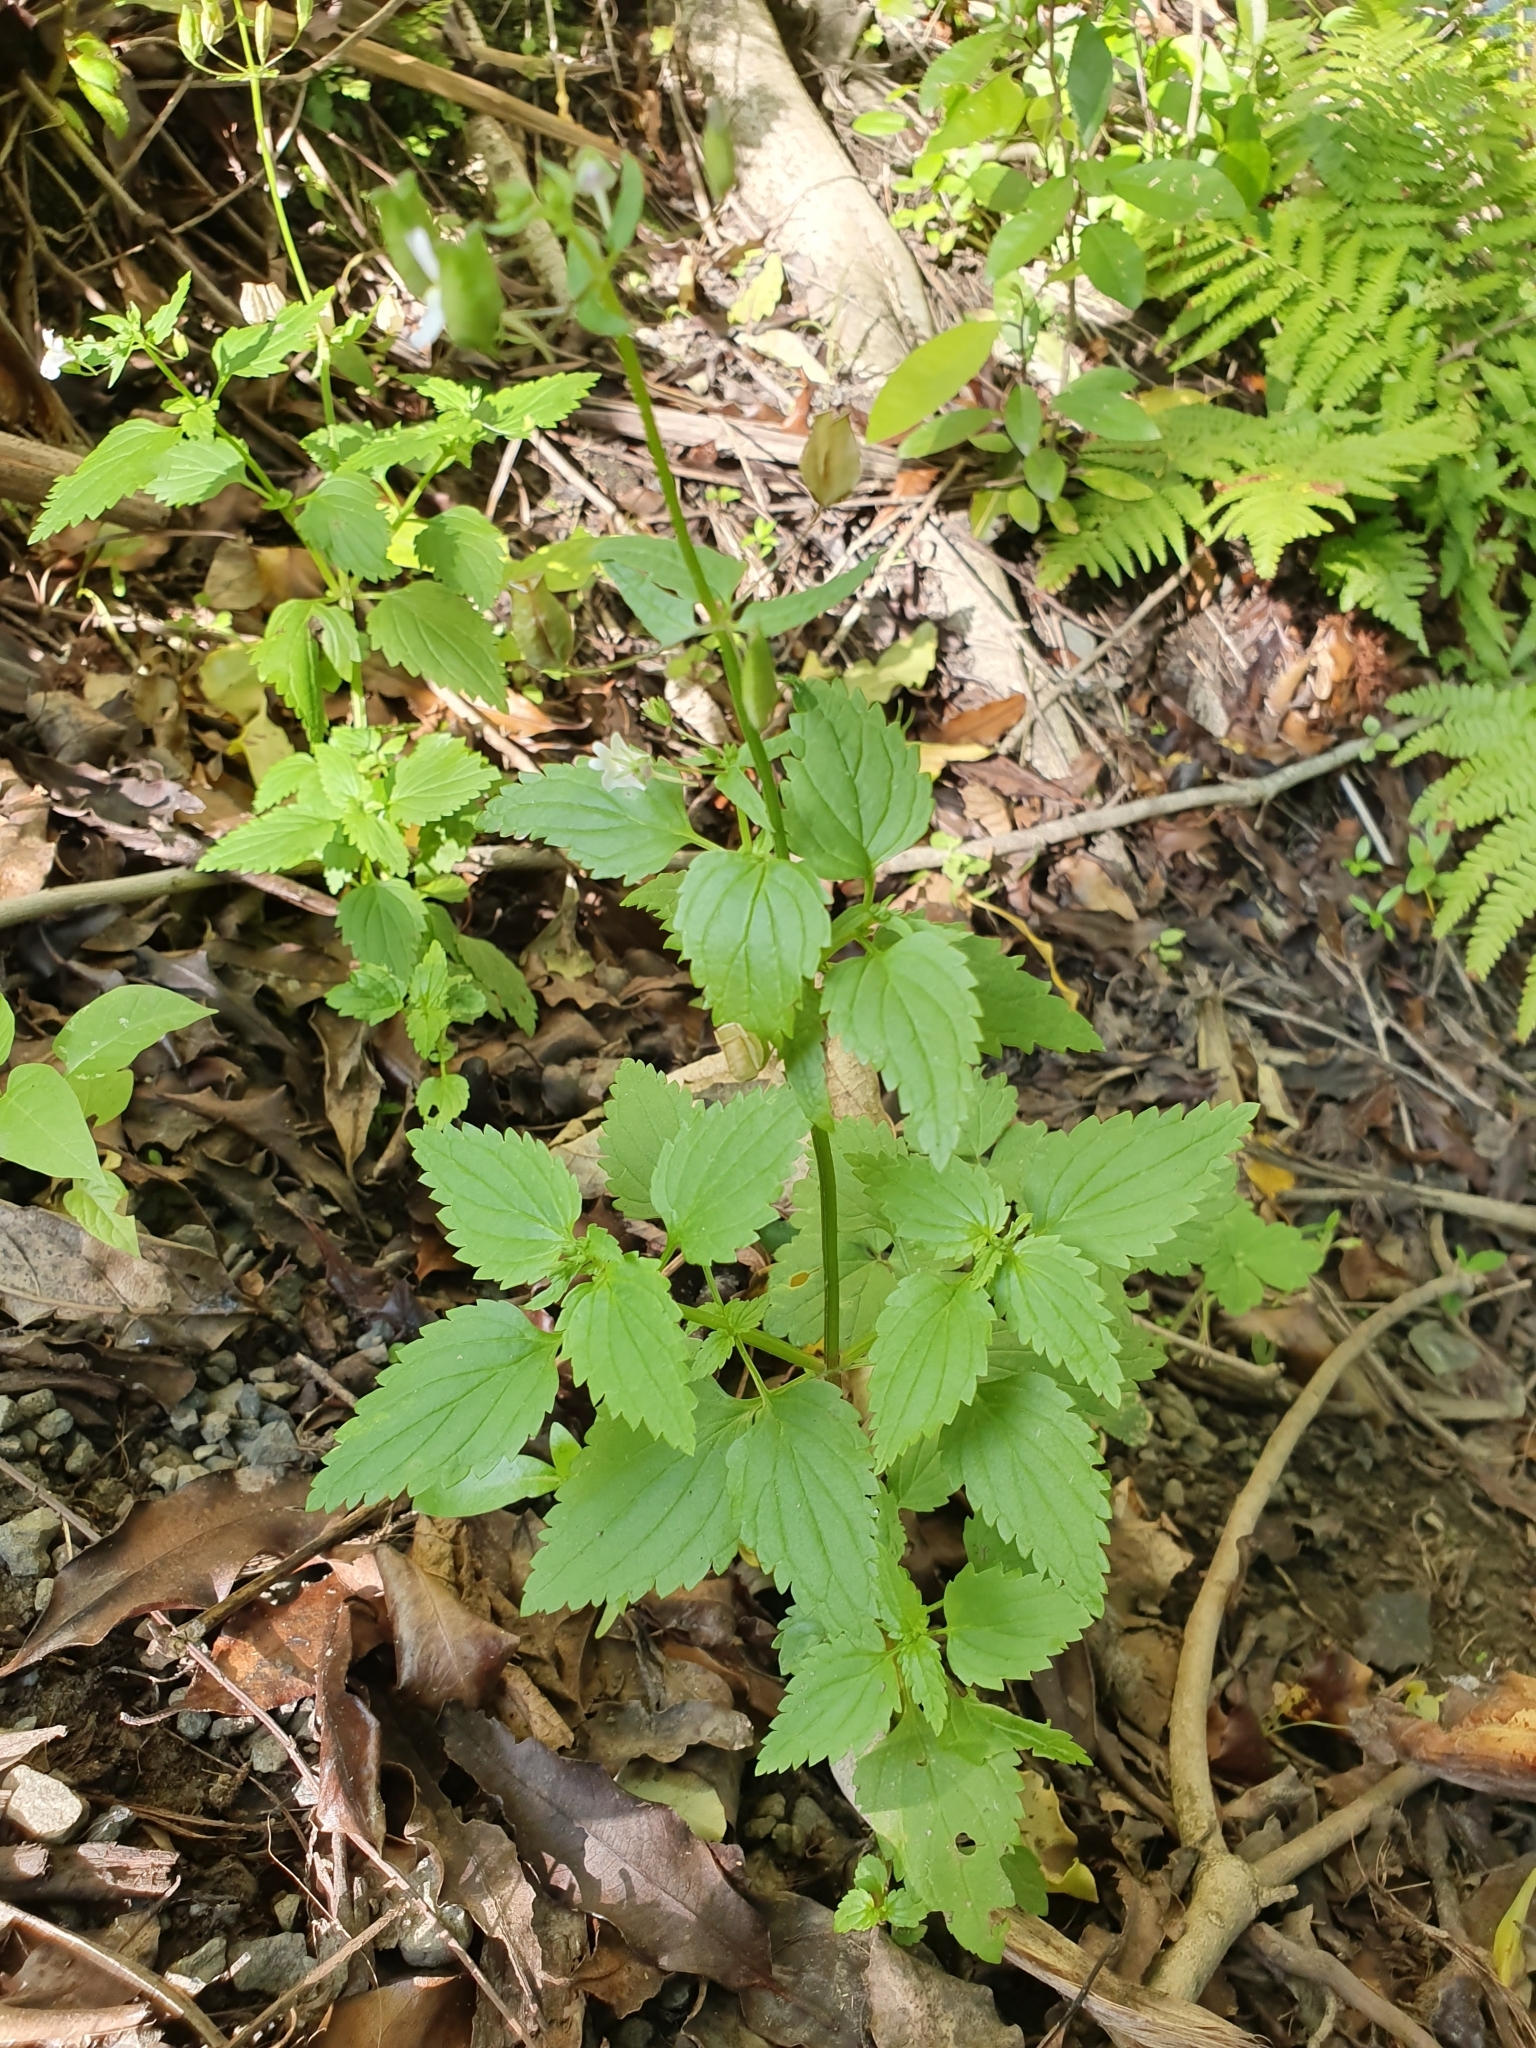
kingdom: Plantae
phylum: Tracheophyta
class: Magnoliopsida
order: Lamiales
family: Scrophulariaceae
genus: Nemesia
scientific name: Nemesia floribunda
